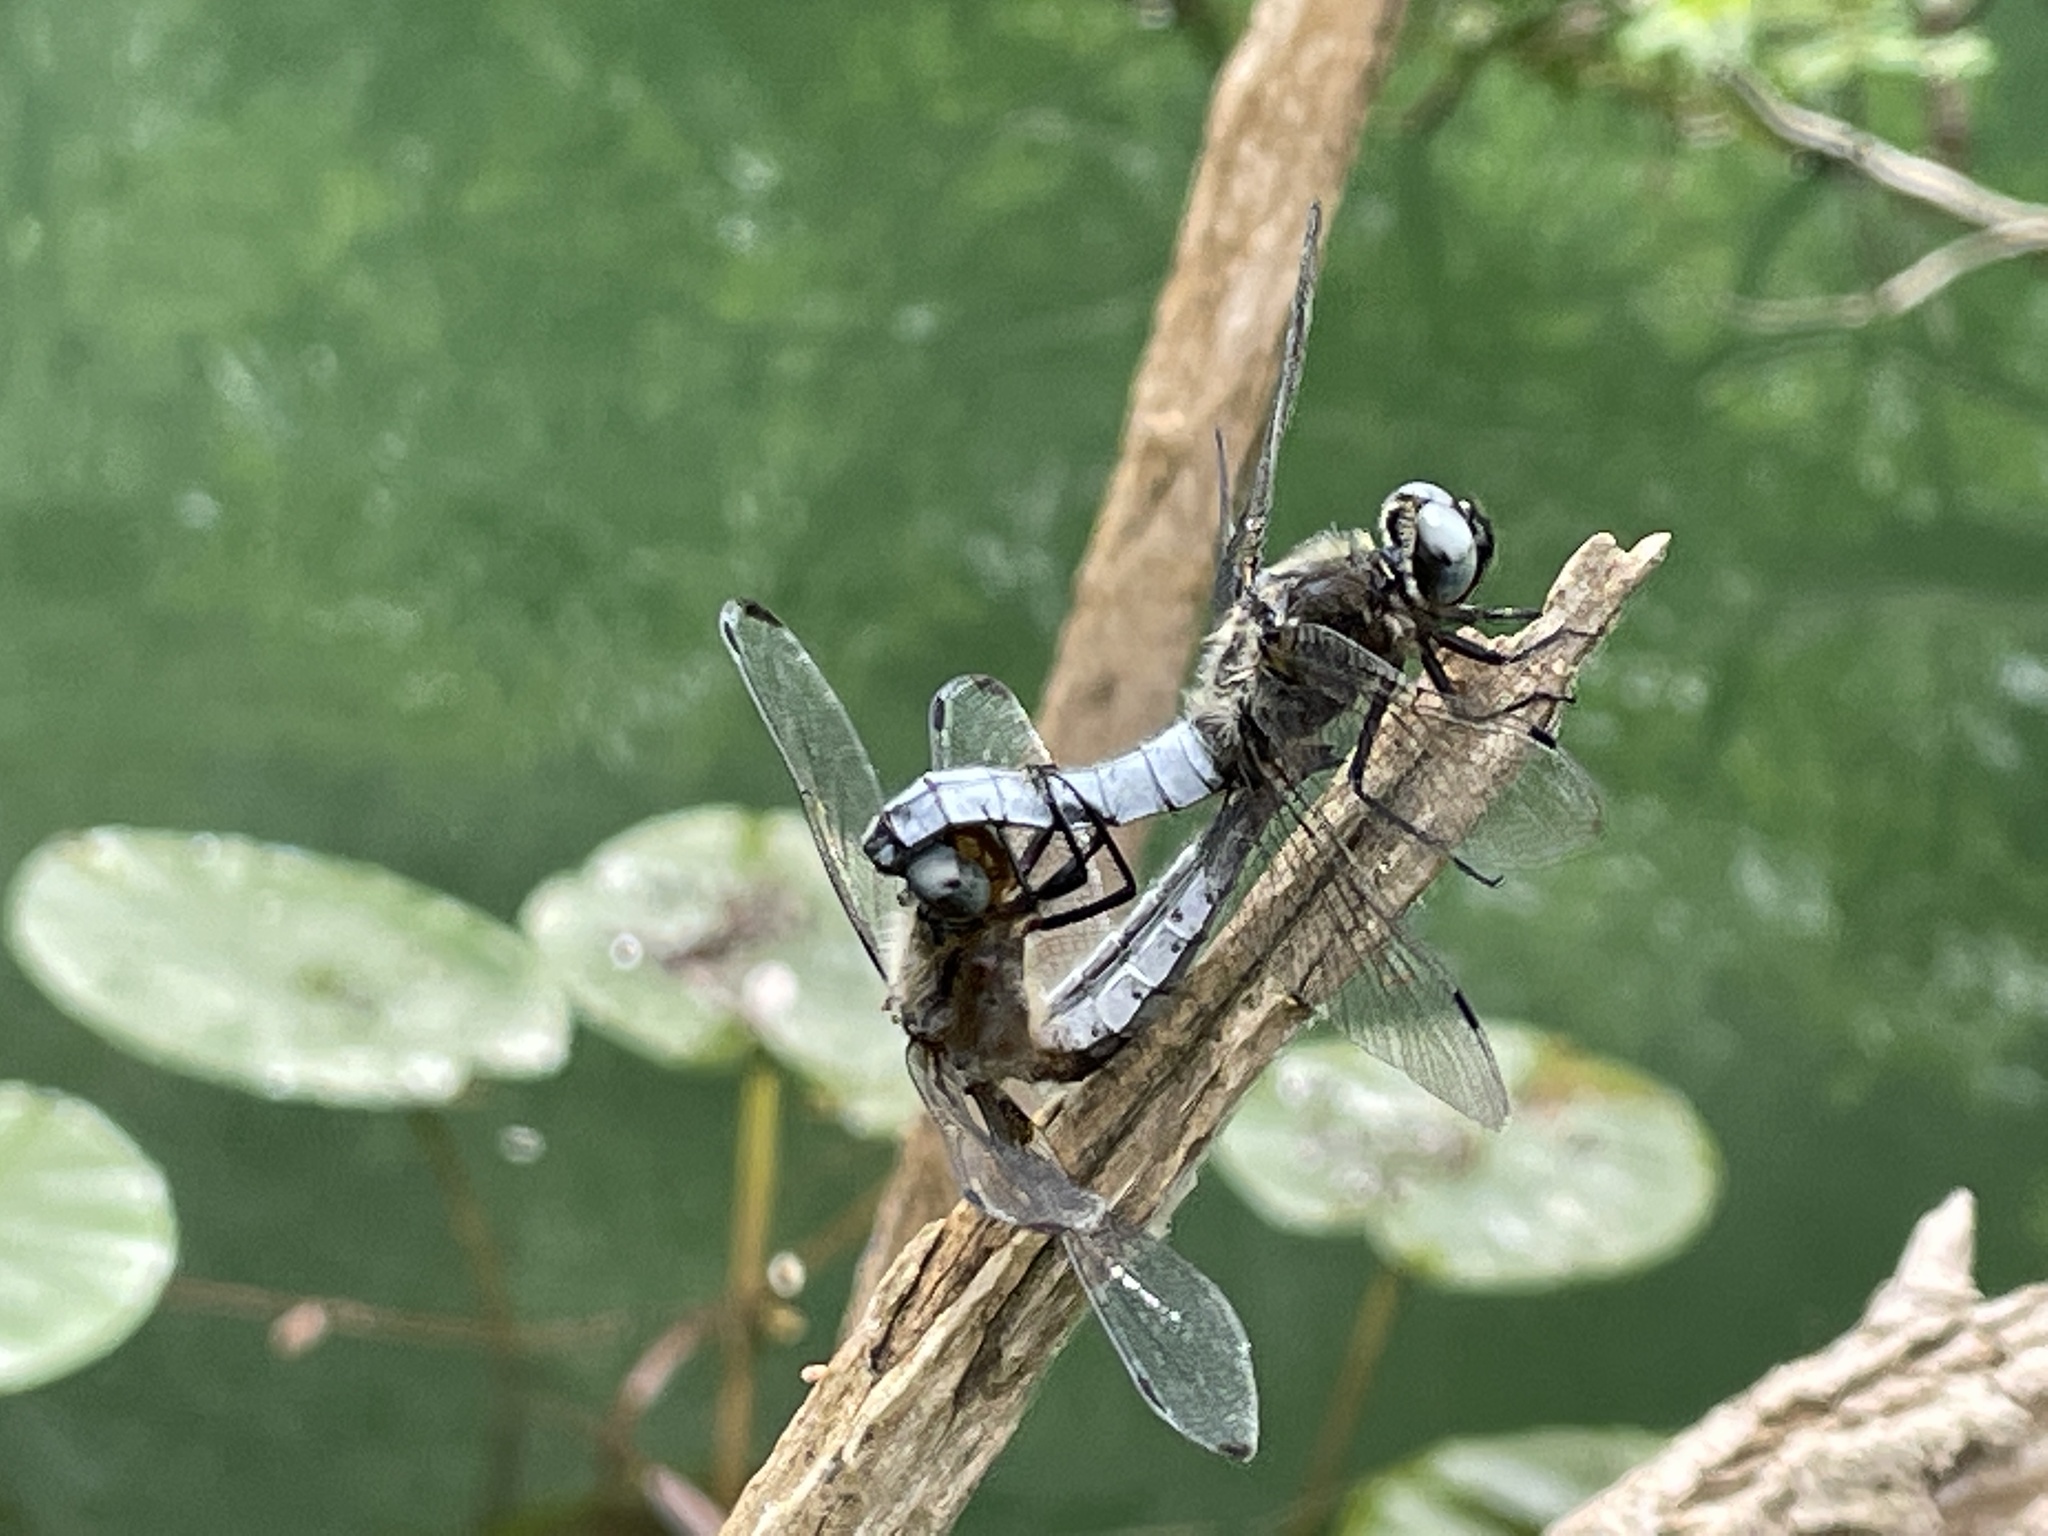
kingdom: Animalia
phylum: Arthropoda
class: Insecta
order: Odonata
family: Libellulidae
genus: Libellula
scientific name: Libellula fulva
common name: Blue chaser
